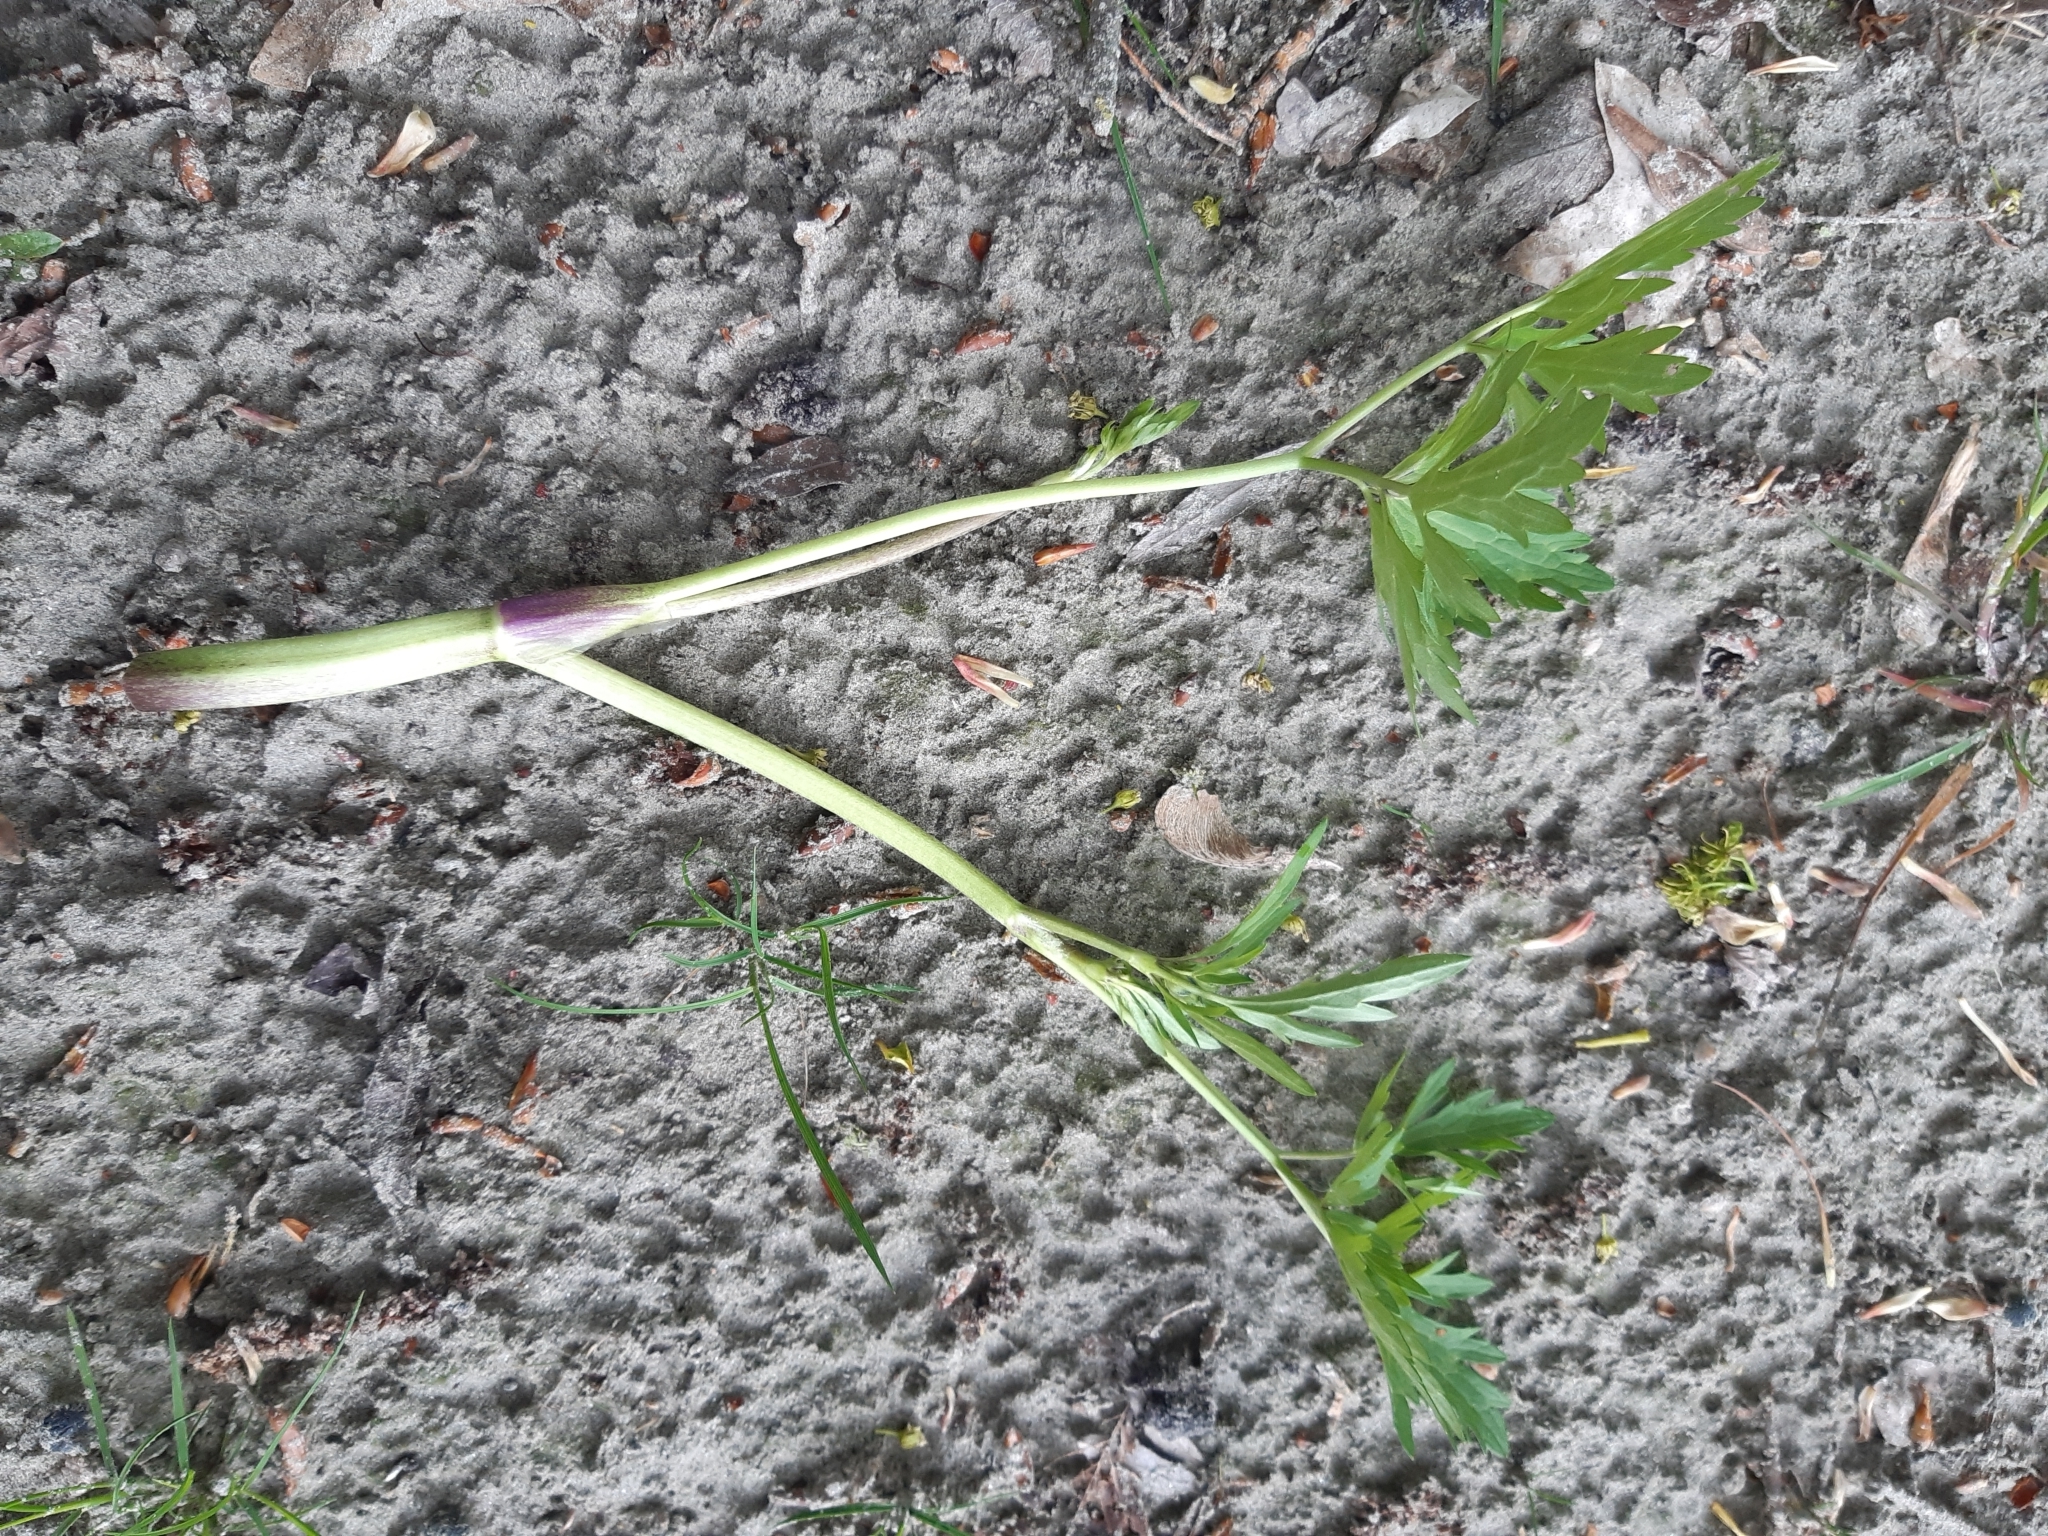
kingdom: Plantae
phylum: Tracheophyta
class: Magnoliopsida
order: Ranunculales
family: Ranunculaceae
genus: Ranunculus
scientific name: Ranunculus repens
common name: Creeping buttercup
